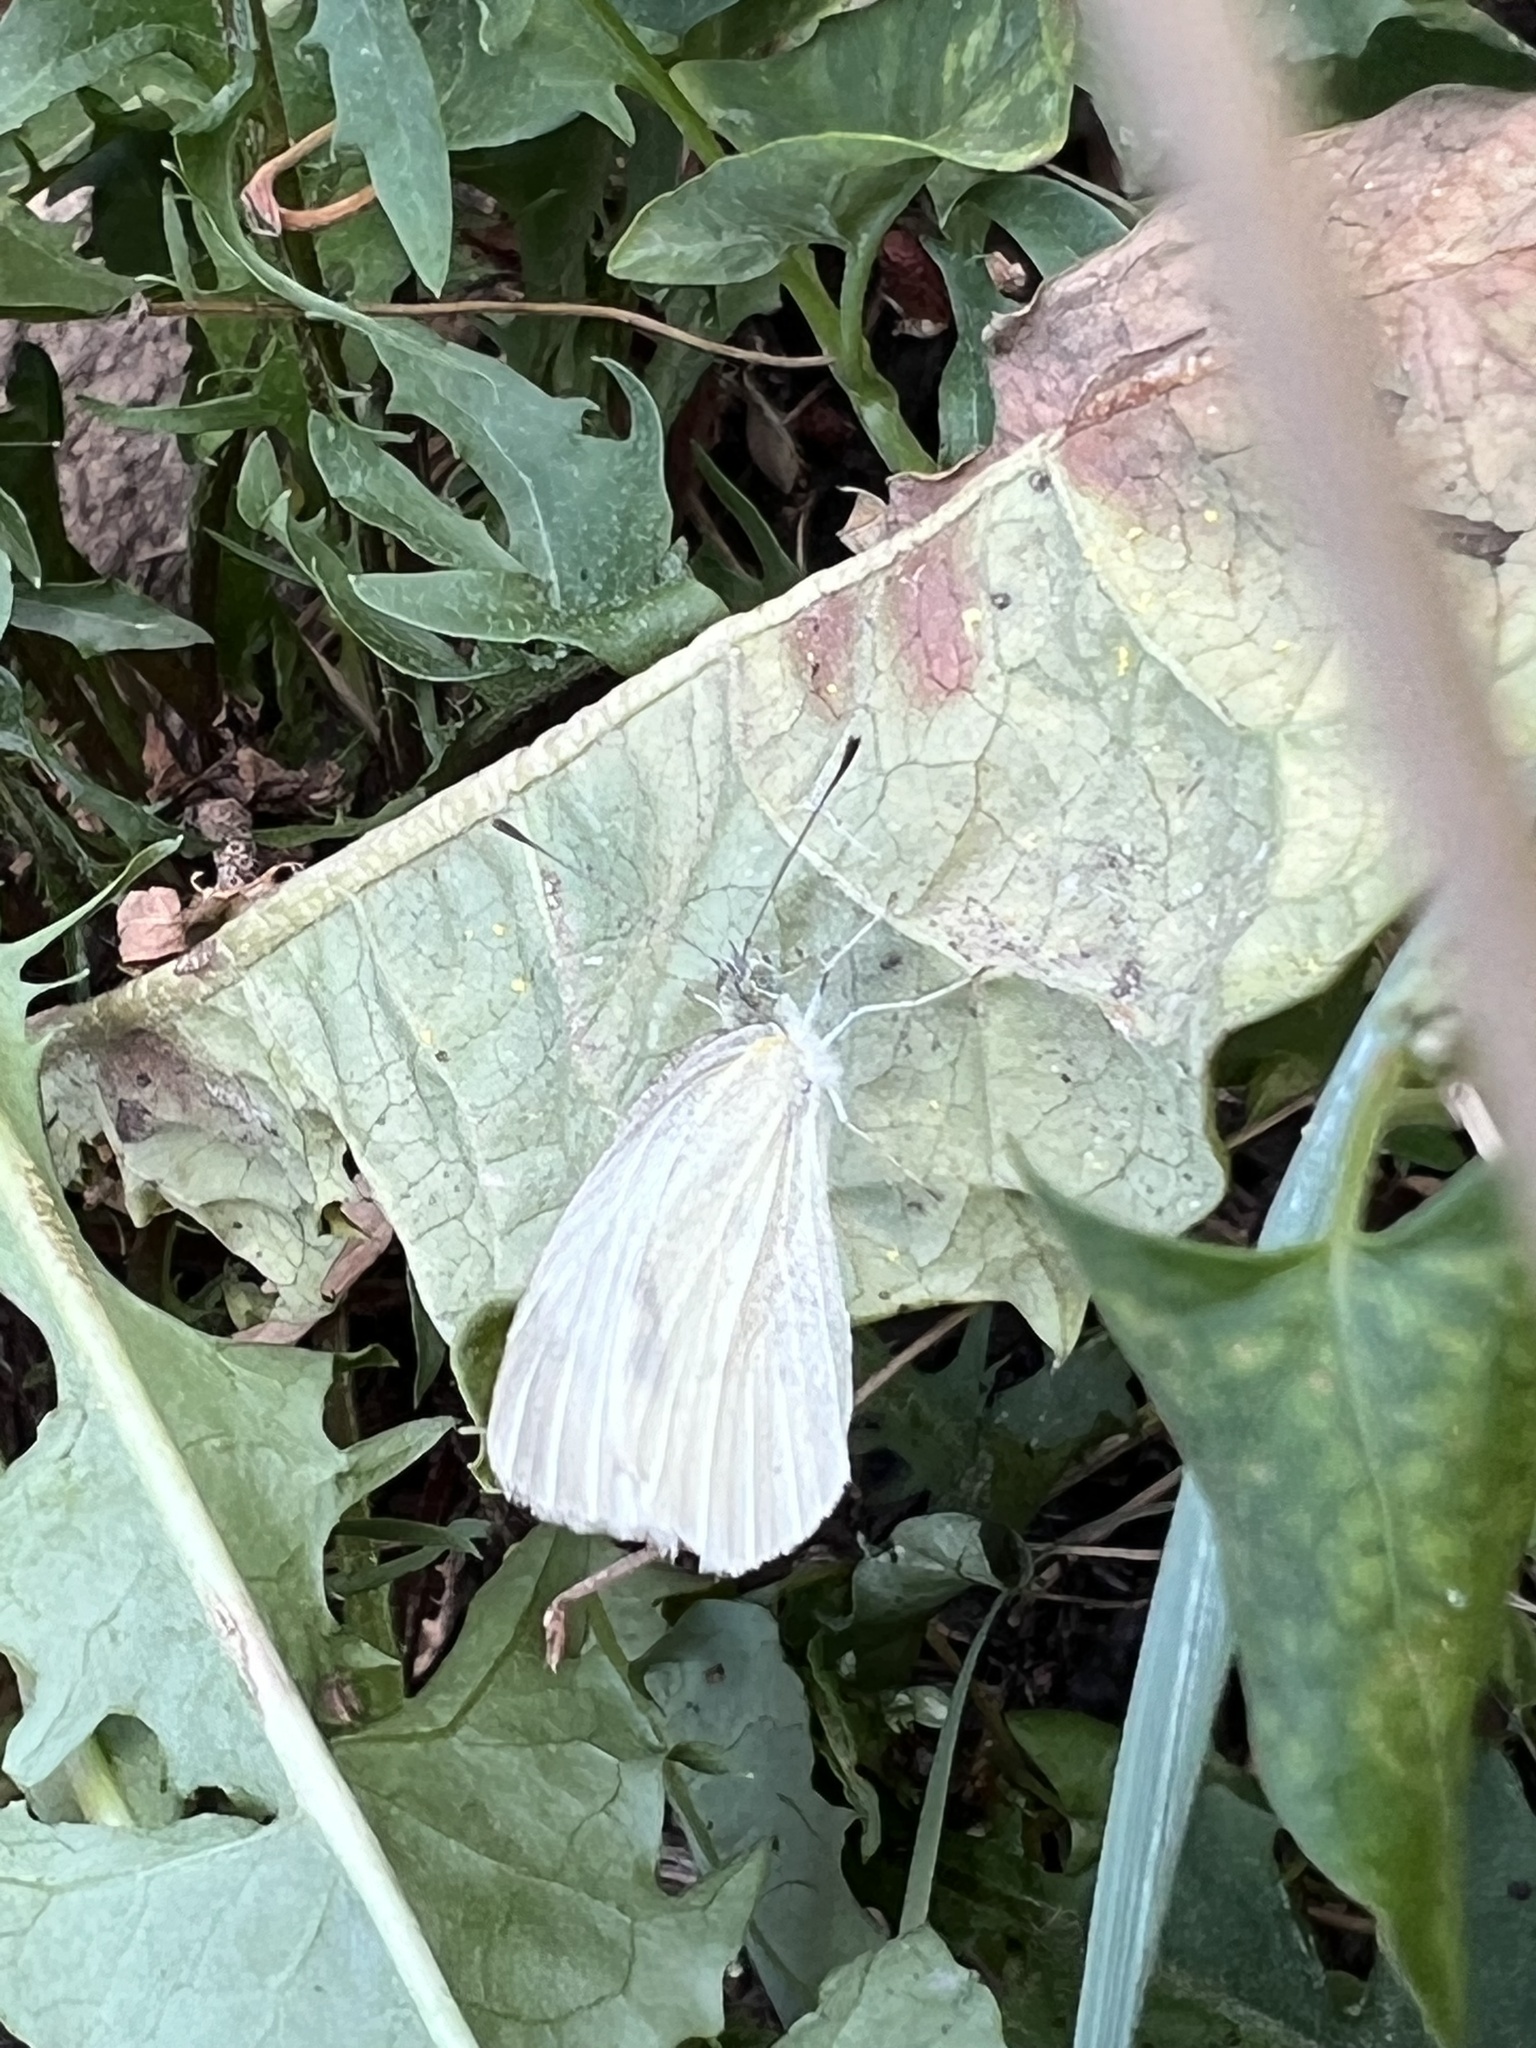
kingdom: Animalia
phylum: Arthropoda
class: Insecta
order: Lepidoptera
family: Pieridae
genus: Pieris
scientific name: Pieris rapae
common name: Small white
